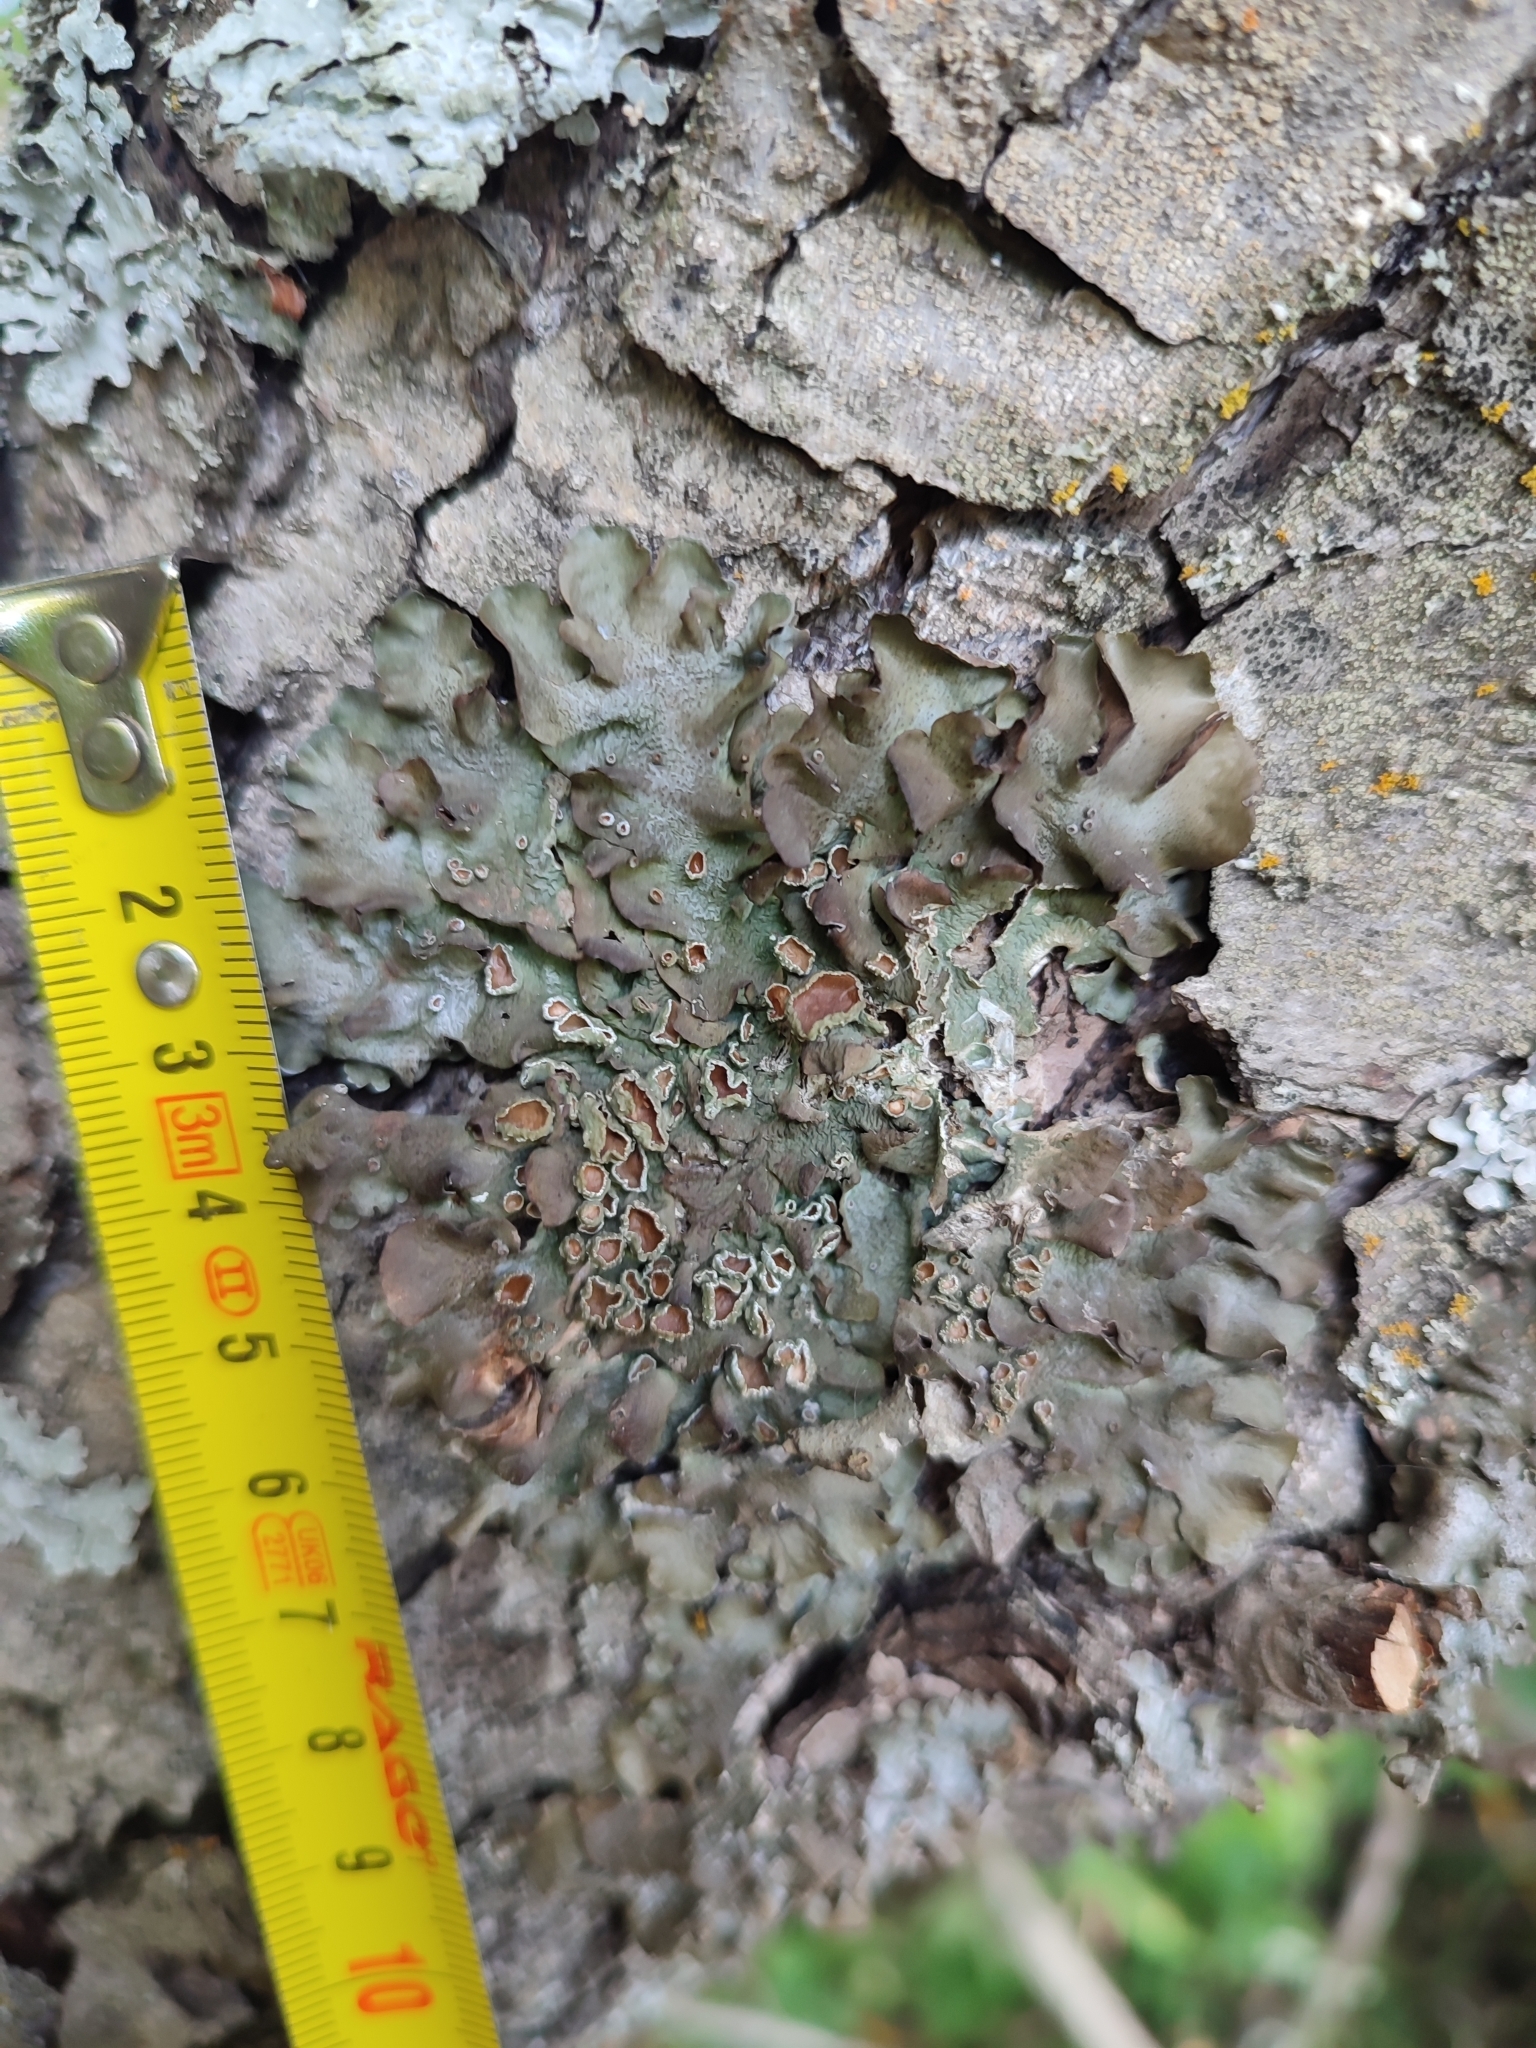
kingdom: Fungi
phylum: Ascomycota
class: Lecanoromycetes
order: Lecanorales
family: Parmeliaceae
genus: Pleurosticta
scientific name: Pleurosticta acetabulum
